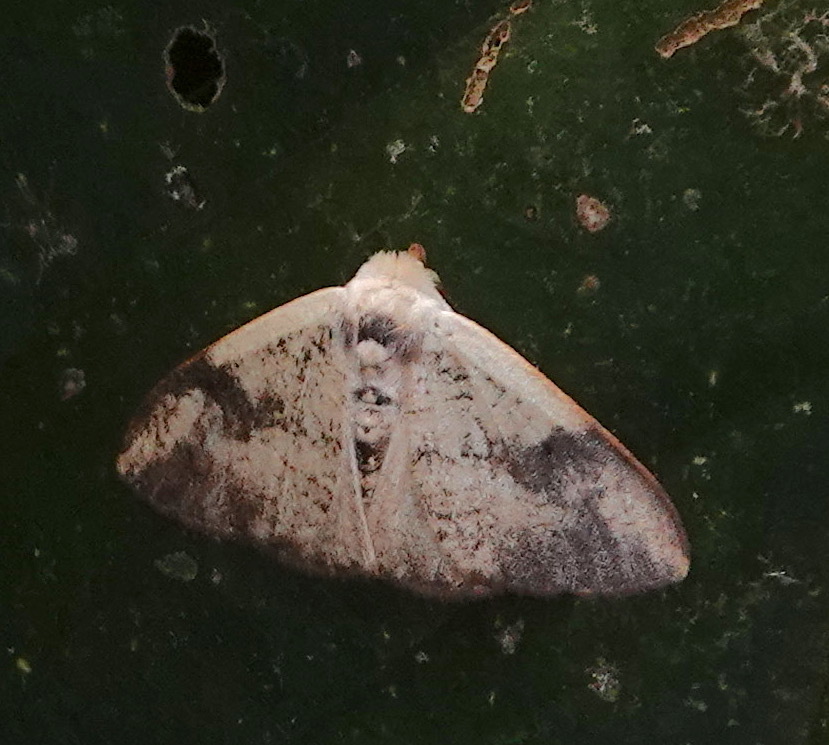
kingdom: Animalia
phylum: Arthropoda
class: Insecta
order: Lepidoptera
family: Erebidae
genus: Arctornis
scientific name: Arctornis flora
